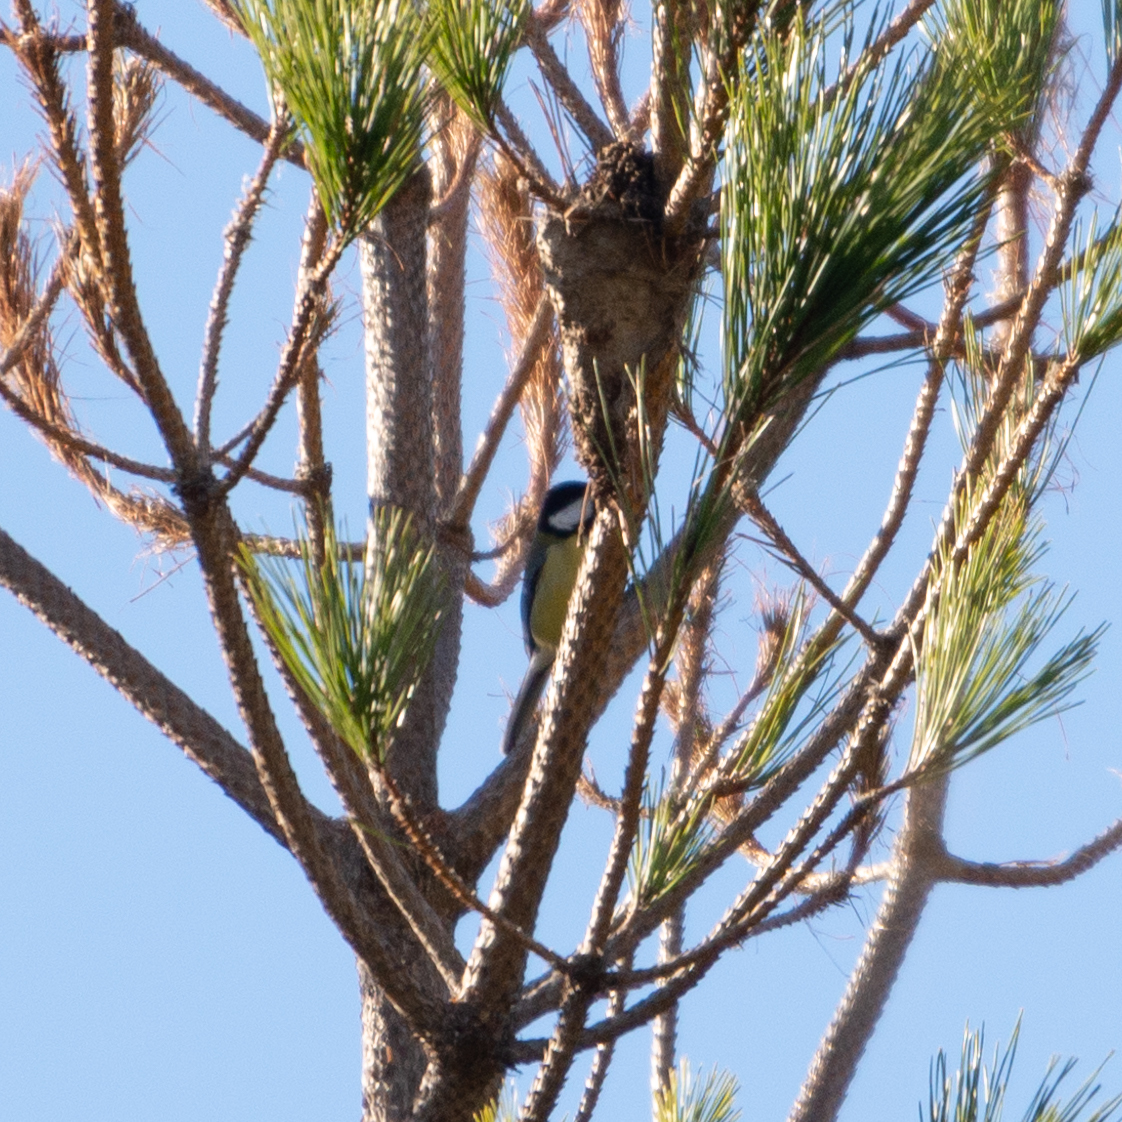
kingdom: Animalia
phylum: Chordata
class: Aves
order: Passeriformes
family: Paridae
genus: Parus
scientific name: Parus major
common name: Great tit
